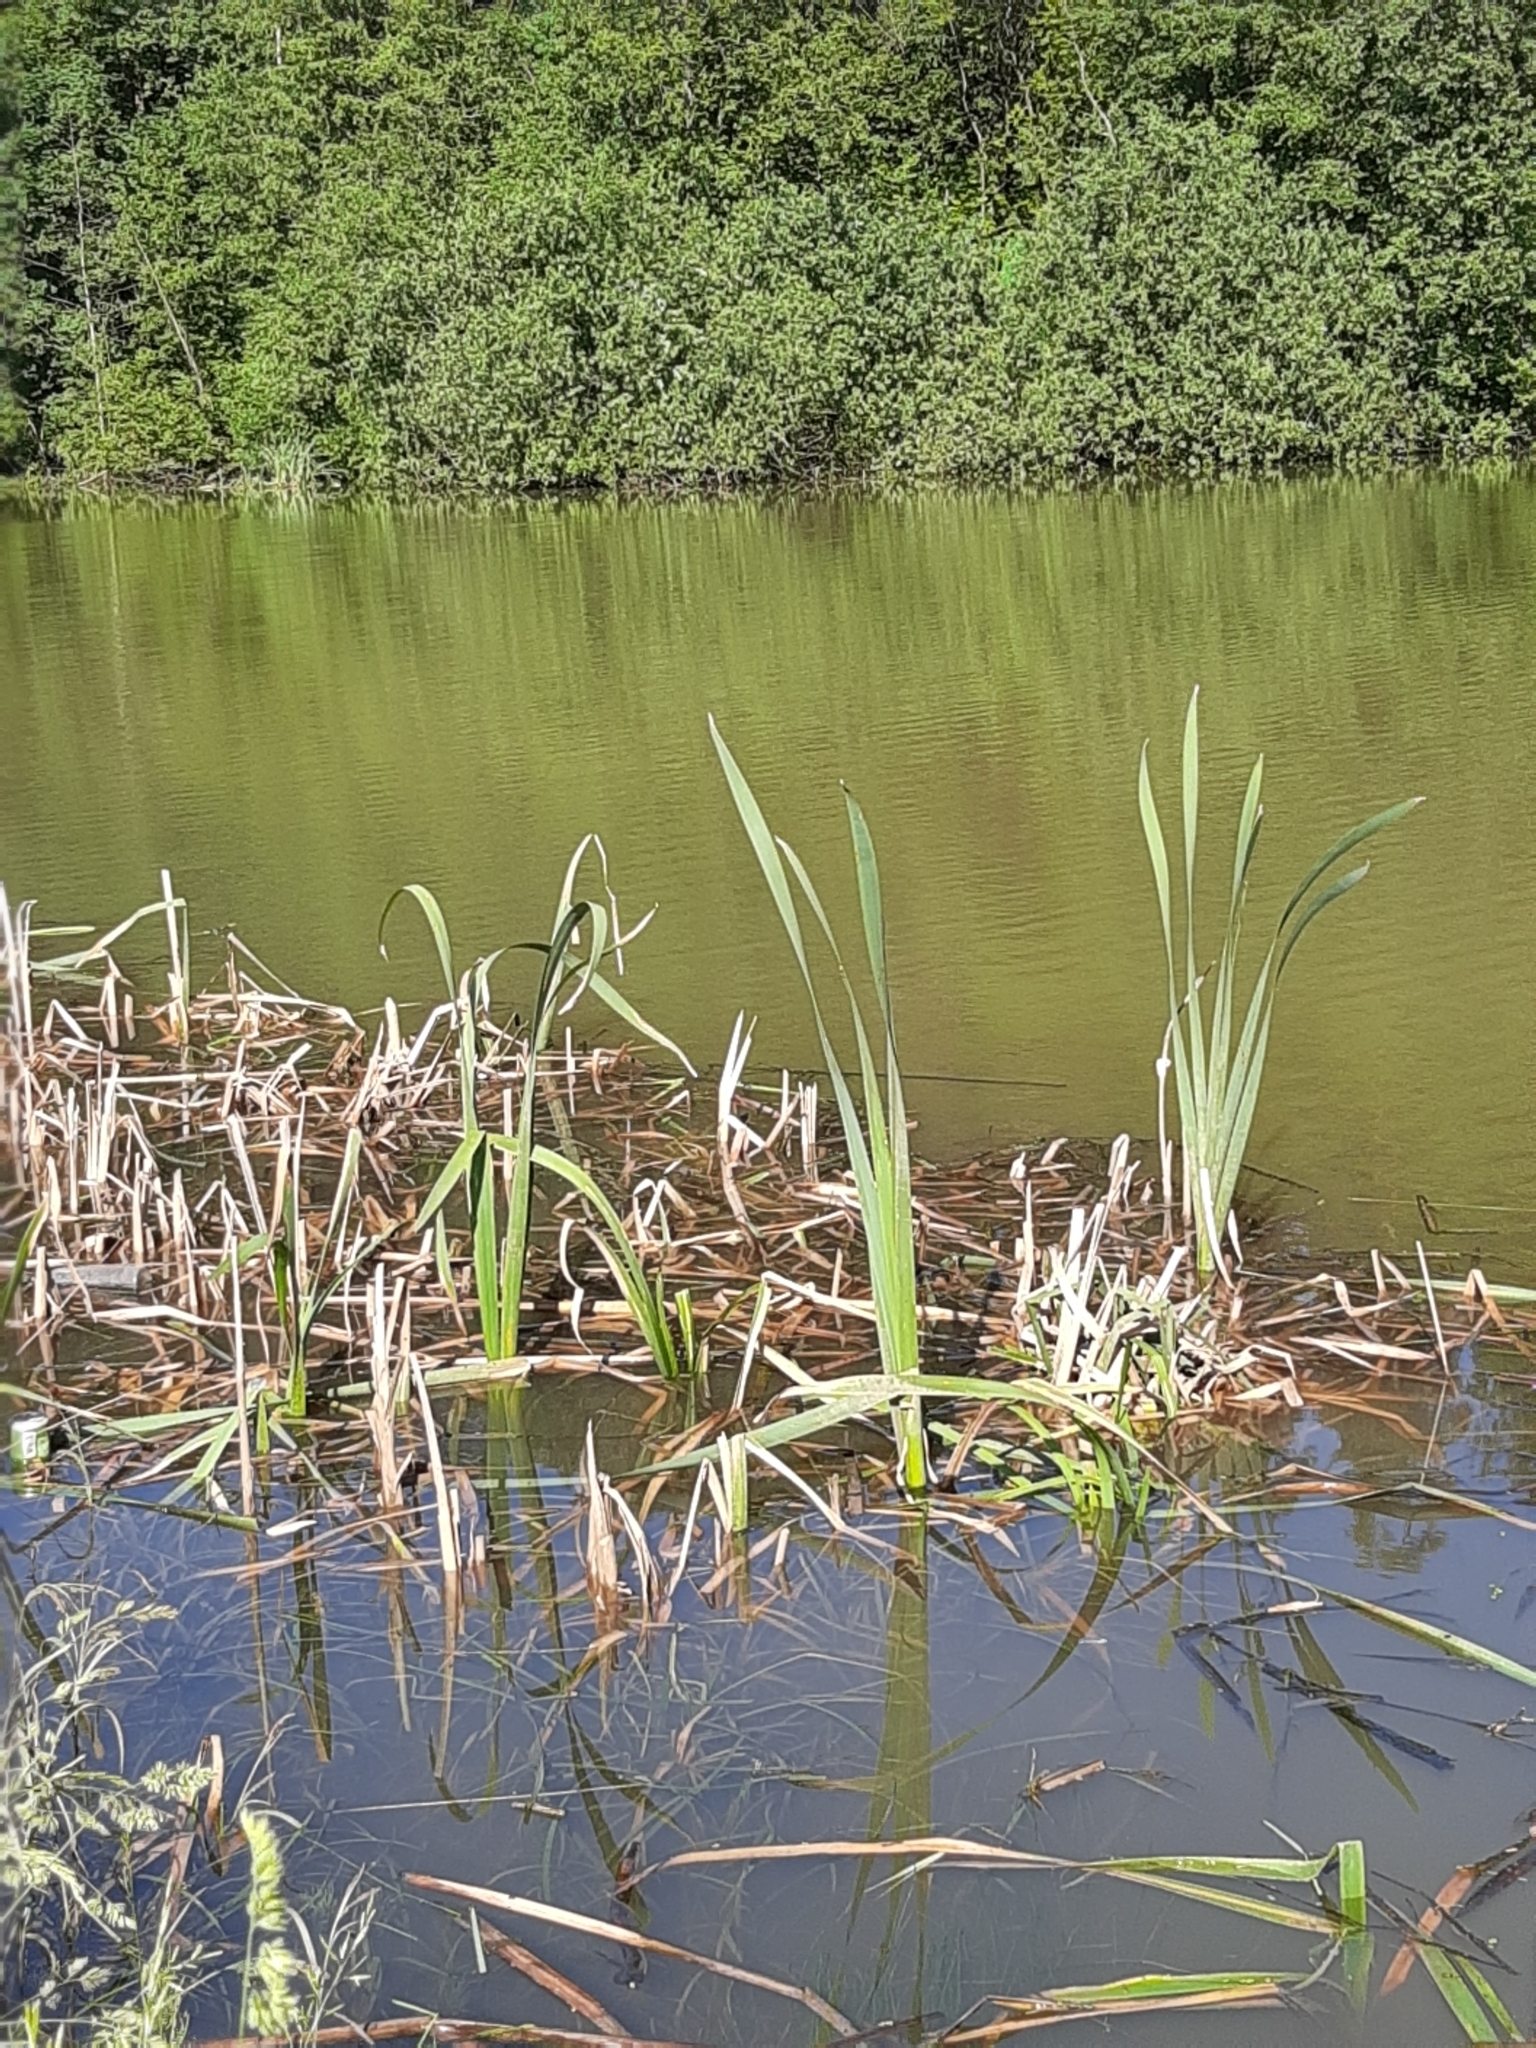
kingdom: Plantae
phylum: Tracheophyta
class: Liliopsida
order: Poales
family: Typhaceae
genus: Typha
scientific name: Typha latifolia
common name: Broadleaf cattail
